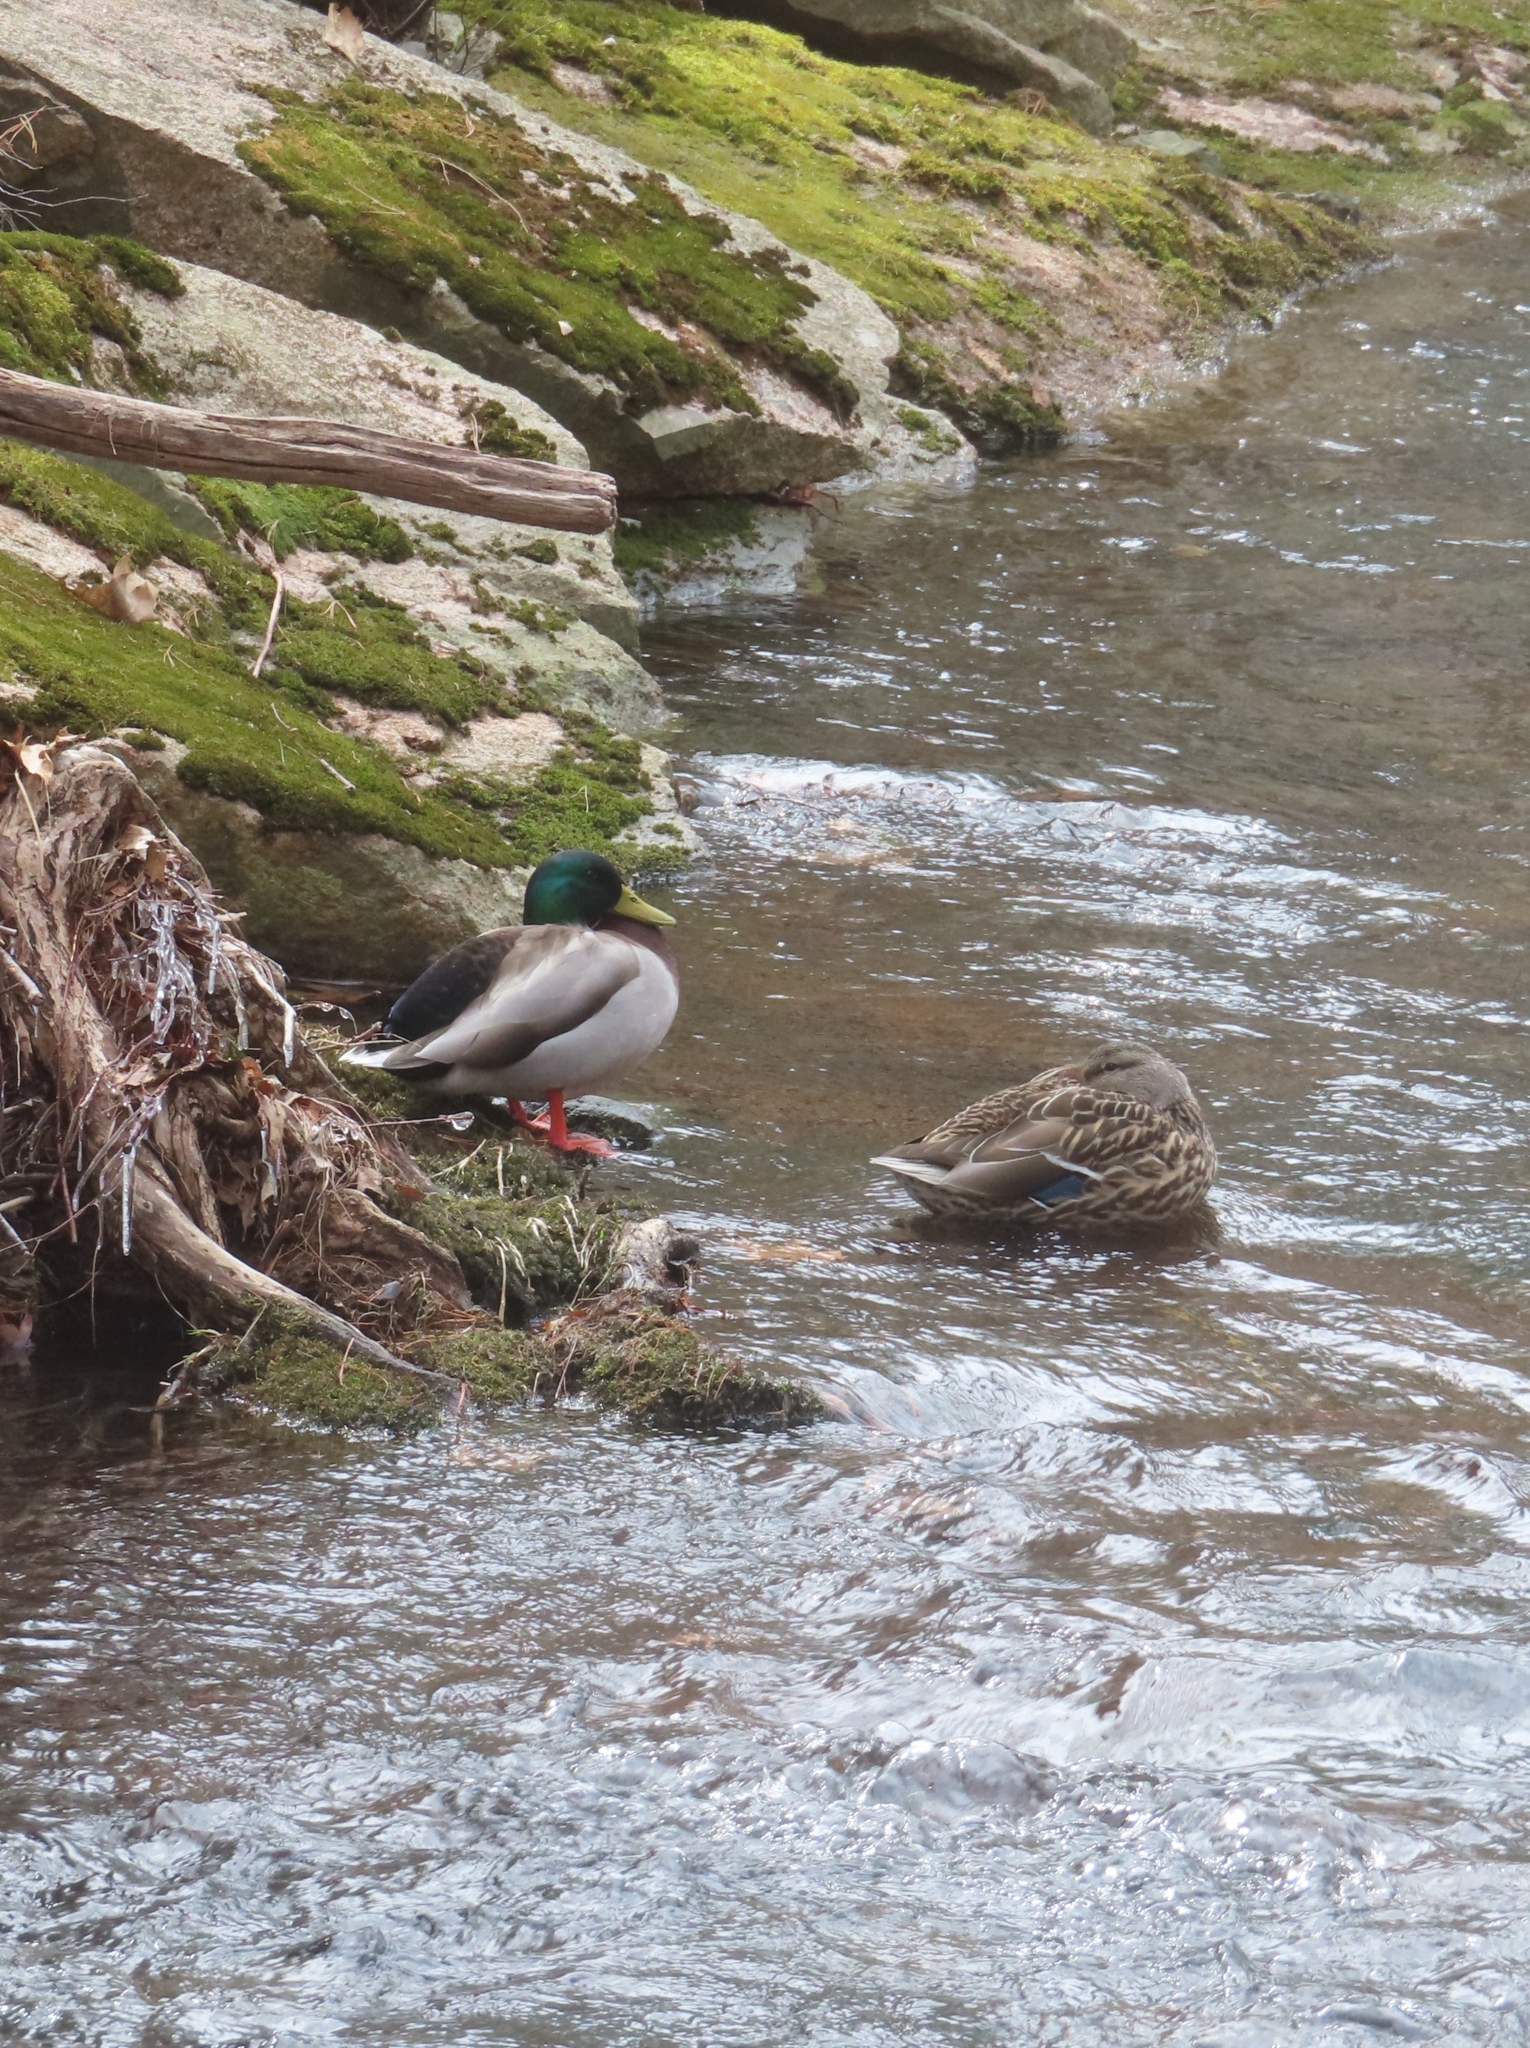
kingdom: Animalia
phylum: Chordata
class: Aves
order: Anseriformes
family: Anatidae
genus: Anas
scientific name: Anas platyrhynchos
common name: Mallard
